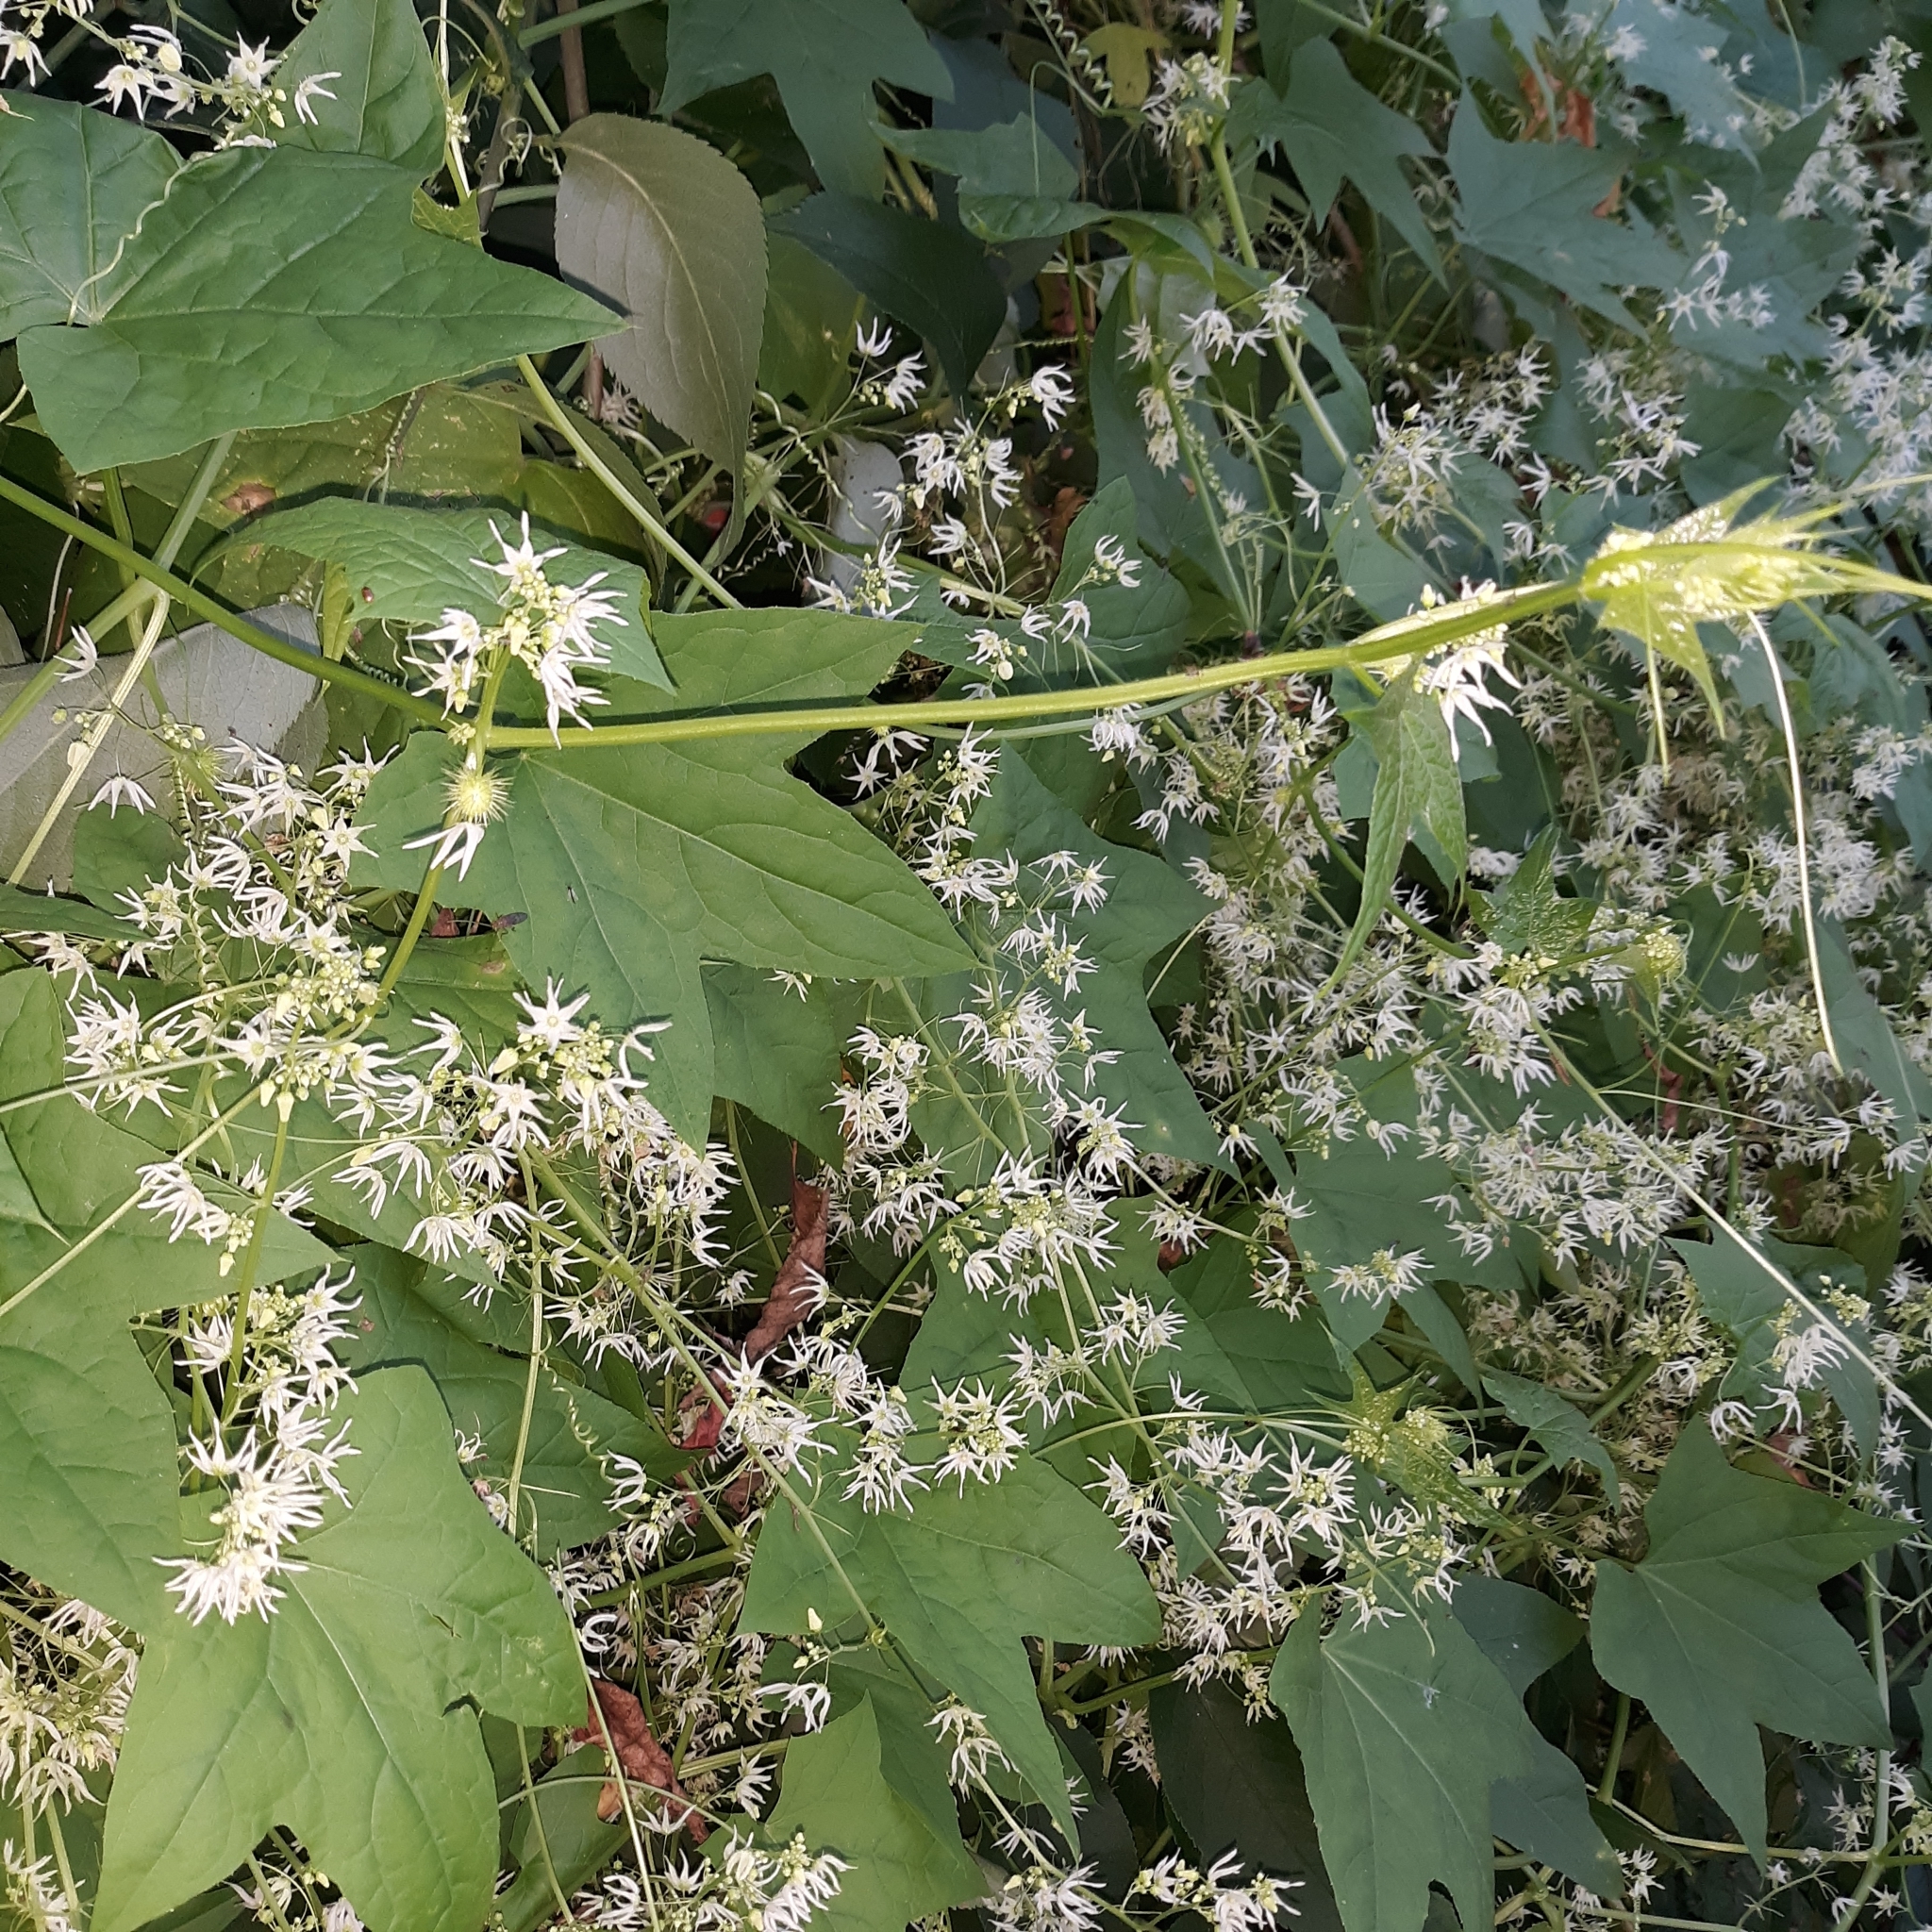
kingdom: Plantae
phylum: Tracheophyta
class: Magnoliopsida
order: Cucurbitales
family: Cucurbitaceae
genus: Echinocystis
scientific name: Echinocystis lobata
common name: Wild cucumber
